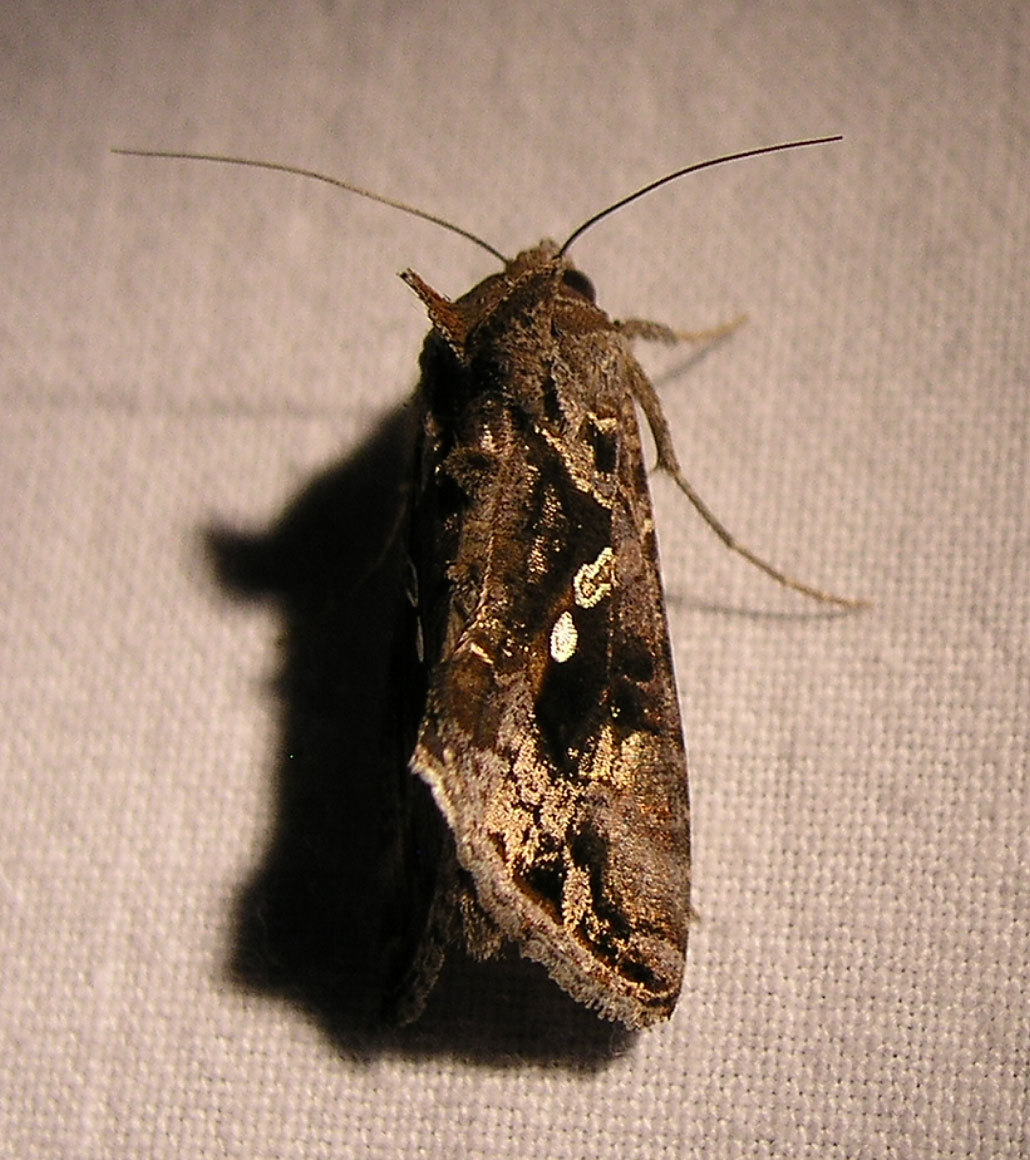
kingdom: Animalia
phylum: Arthropoda
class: Insecta
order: Lepidoptera
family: Noctuidae
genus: Chrysodeixis
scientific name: Chrysodeixis includens
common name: Cutworm moth
